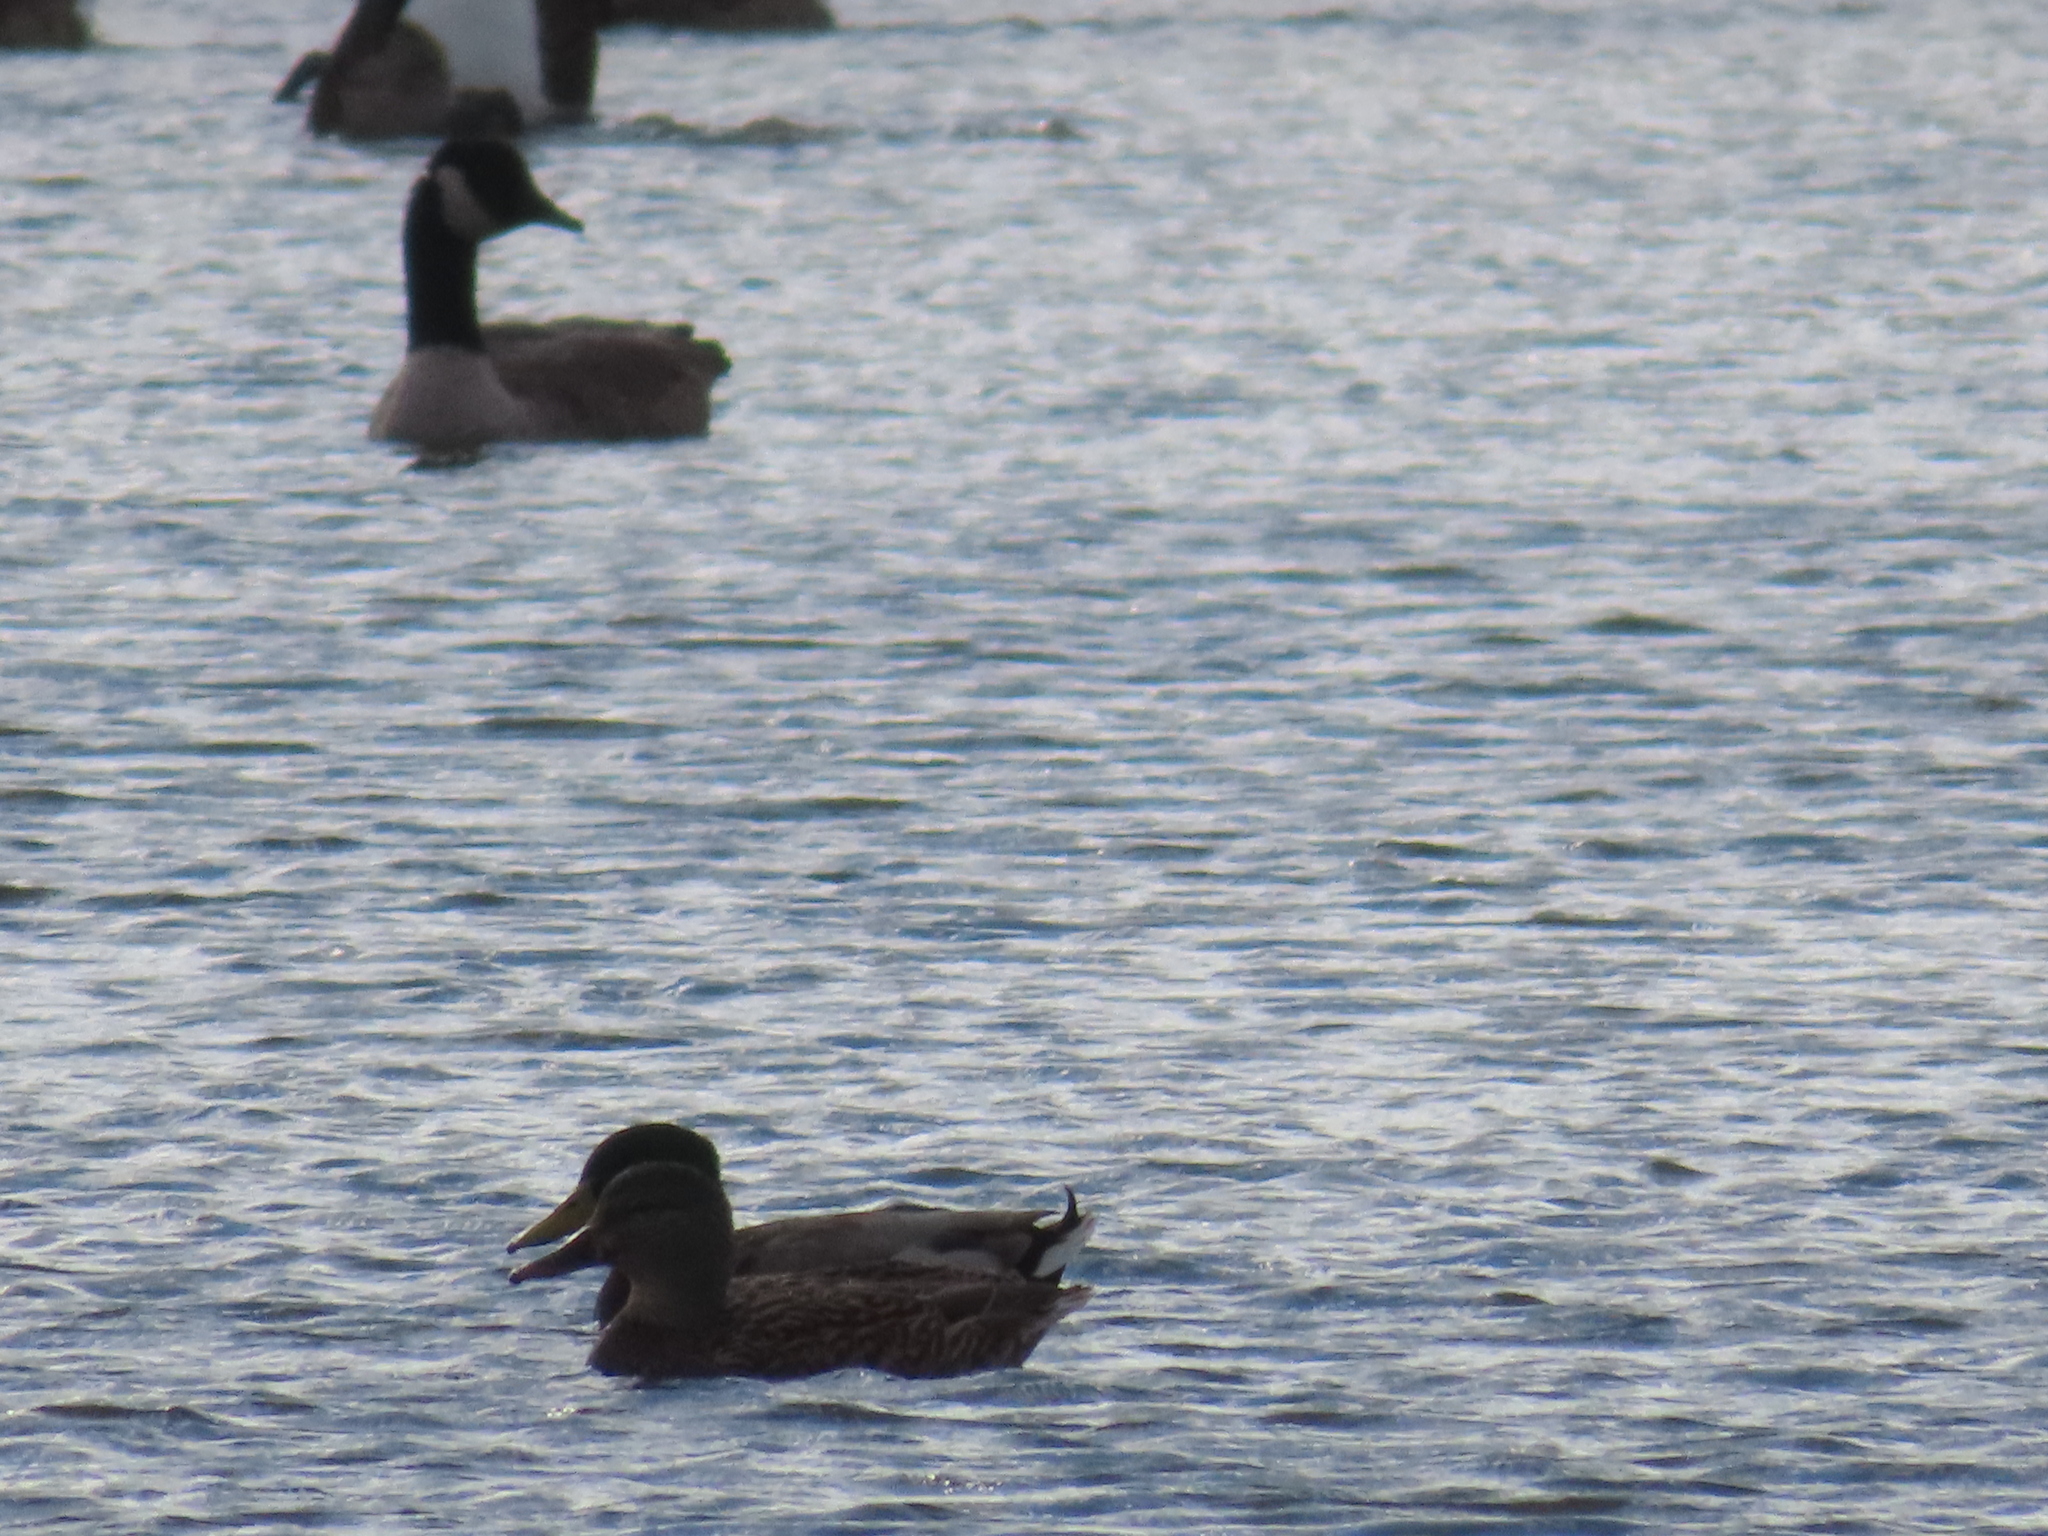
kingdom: Animalia
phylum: Chordata
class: Aves
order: Anseriformes
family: Anatidae
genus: Anas
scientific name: Anas platyrhynchos
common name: Mallard
